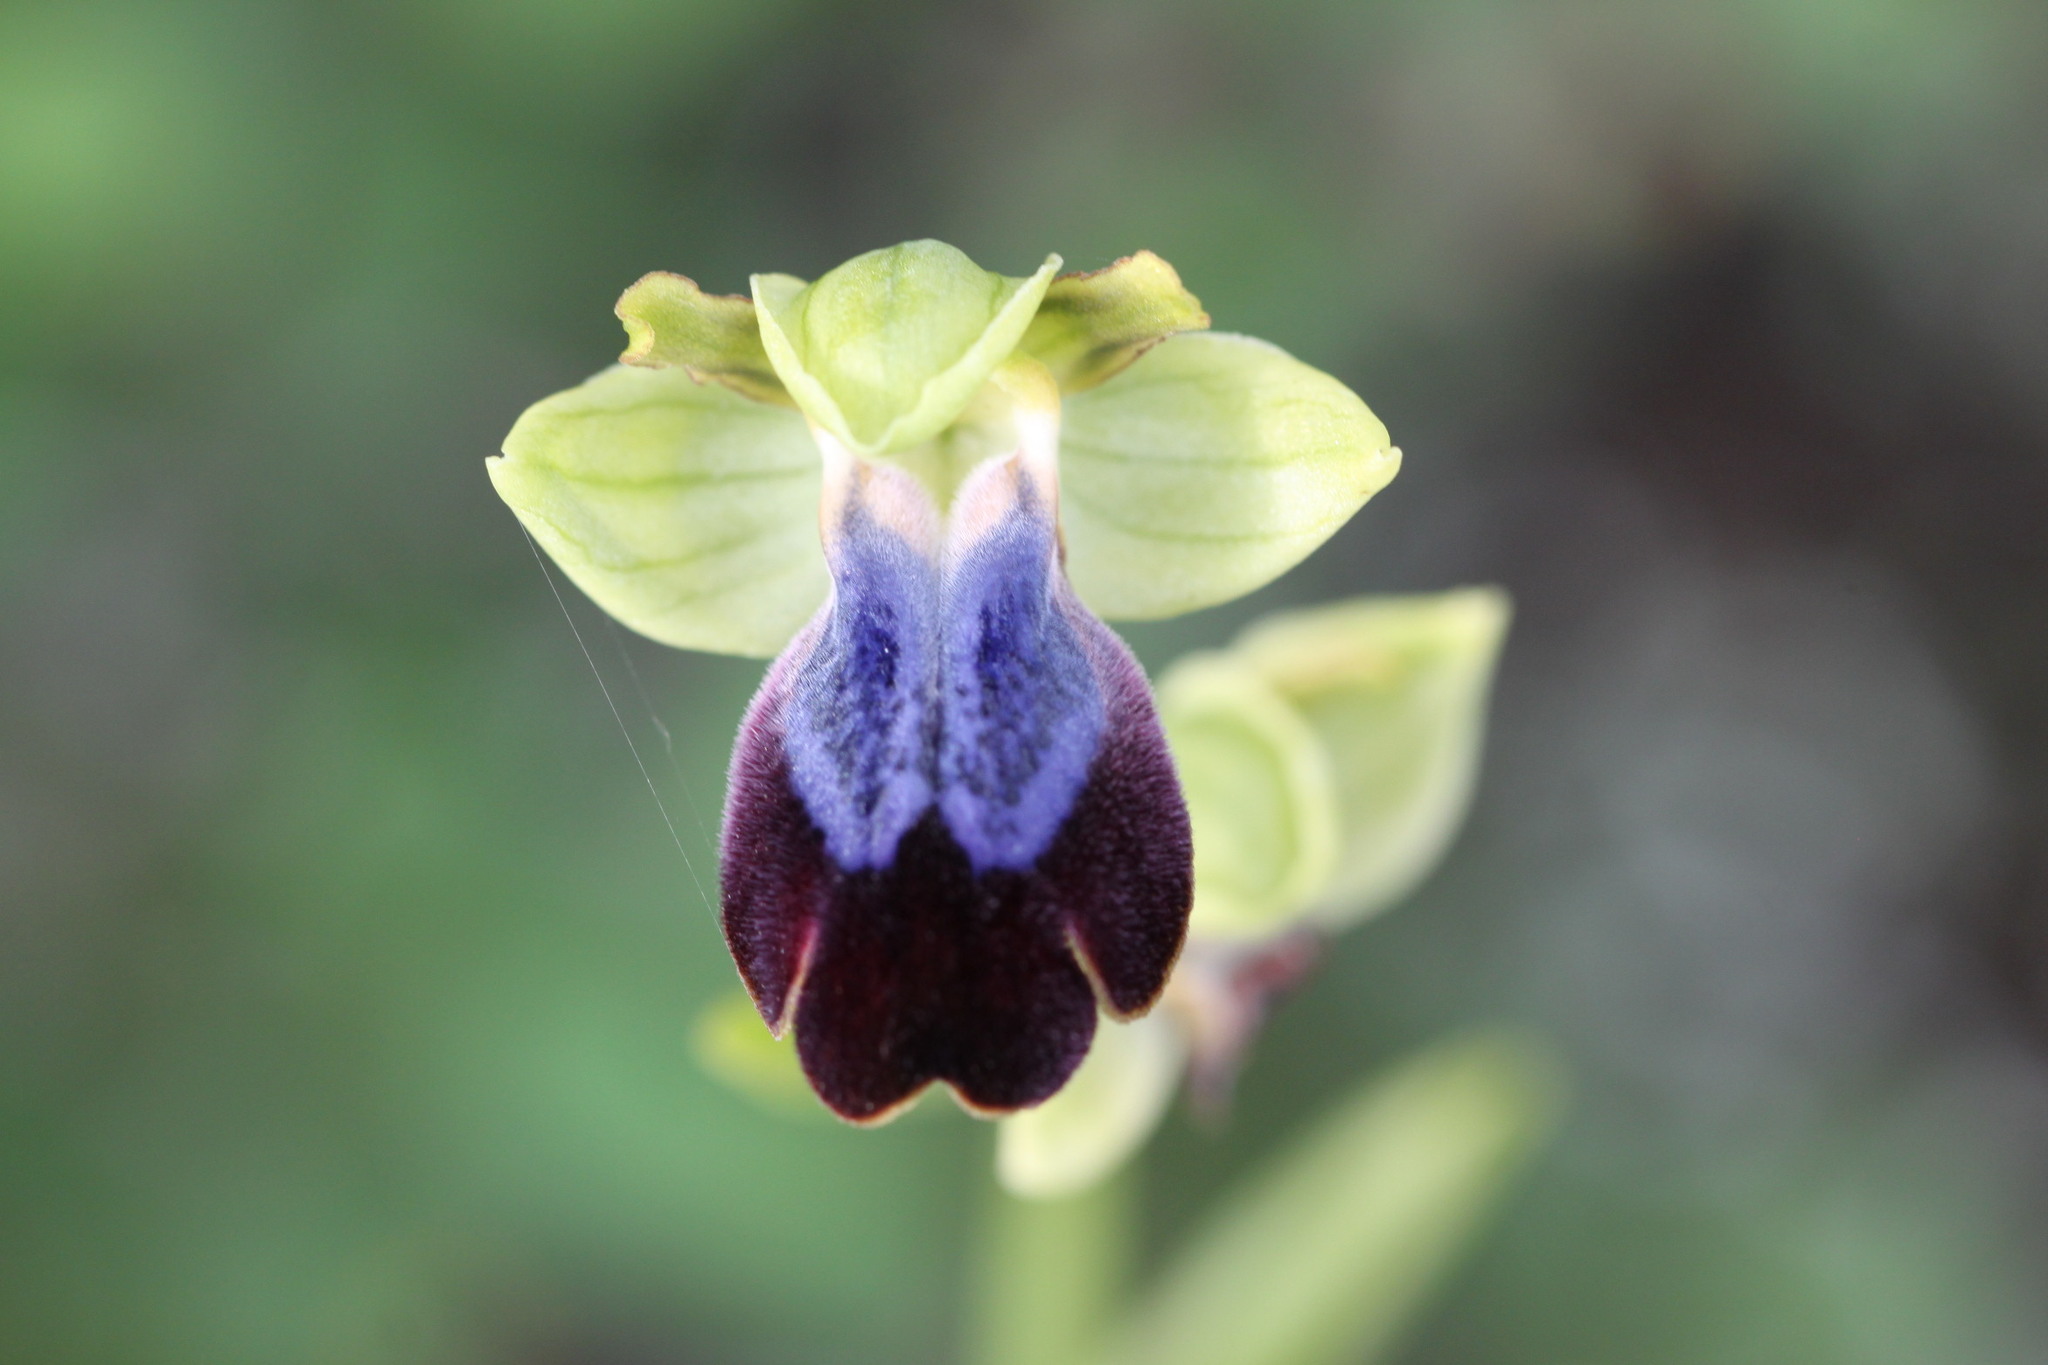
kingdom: Plantae
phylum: Tracheophyta
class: Liliopsida
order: Asparagales
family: Orchidaceae
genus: Ophrys
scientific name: Ophrys fusca
